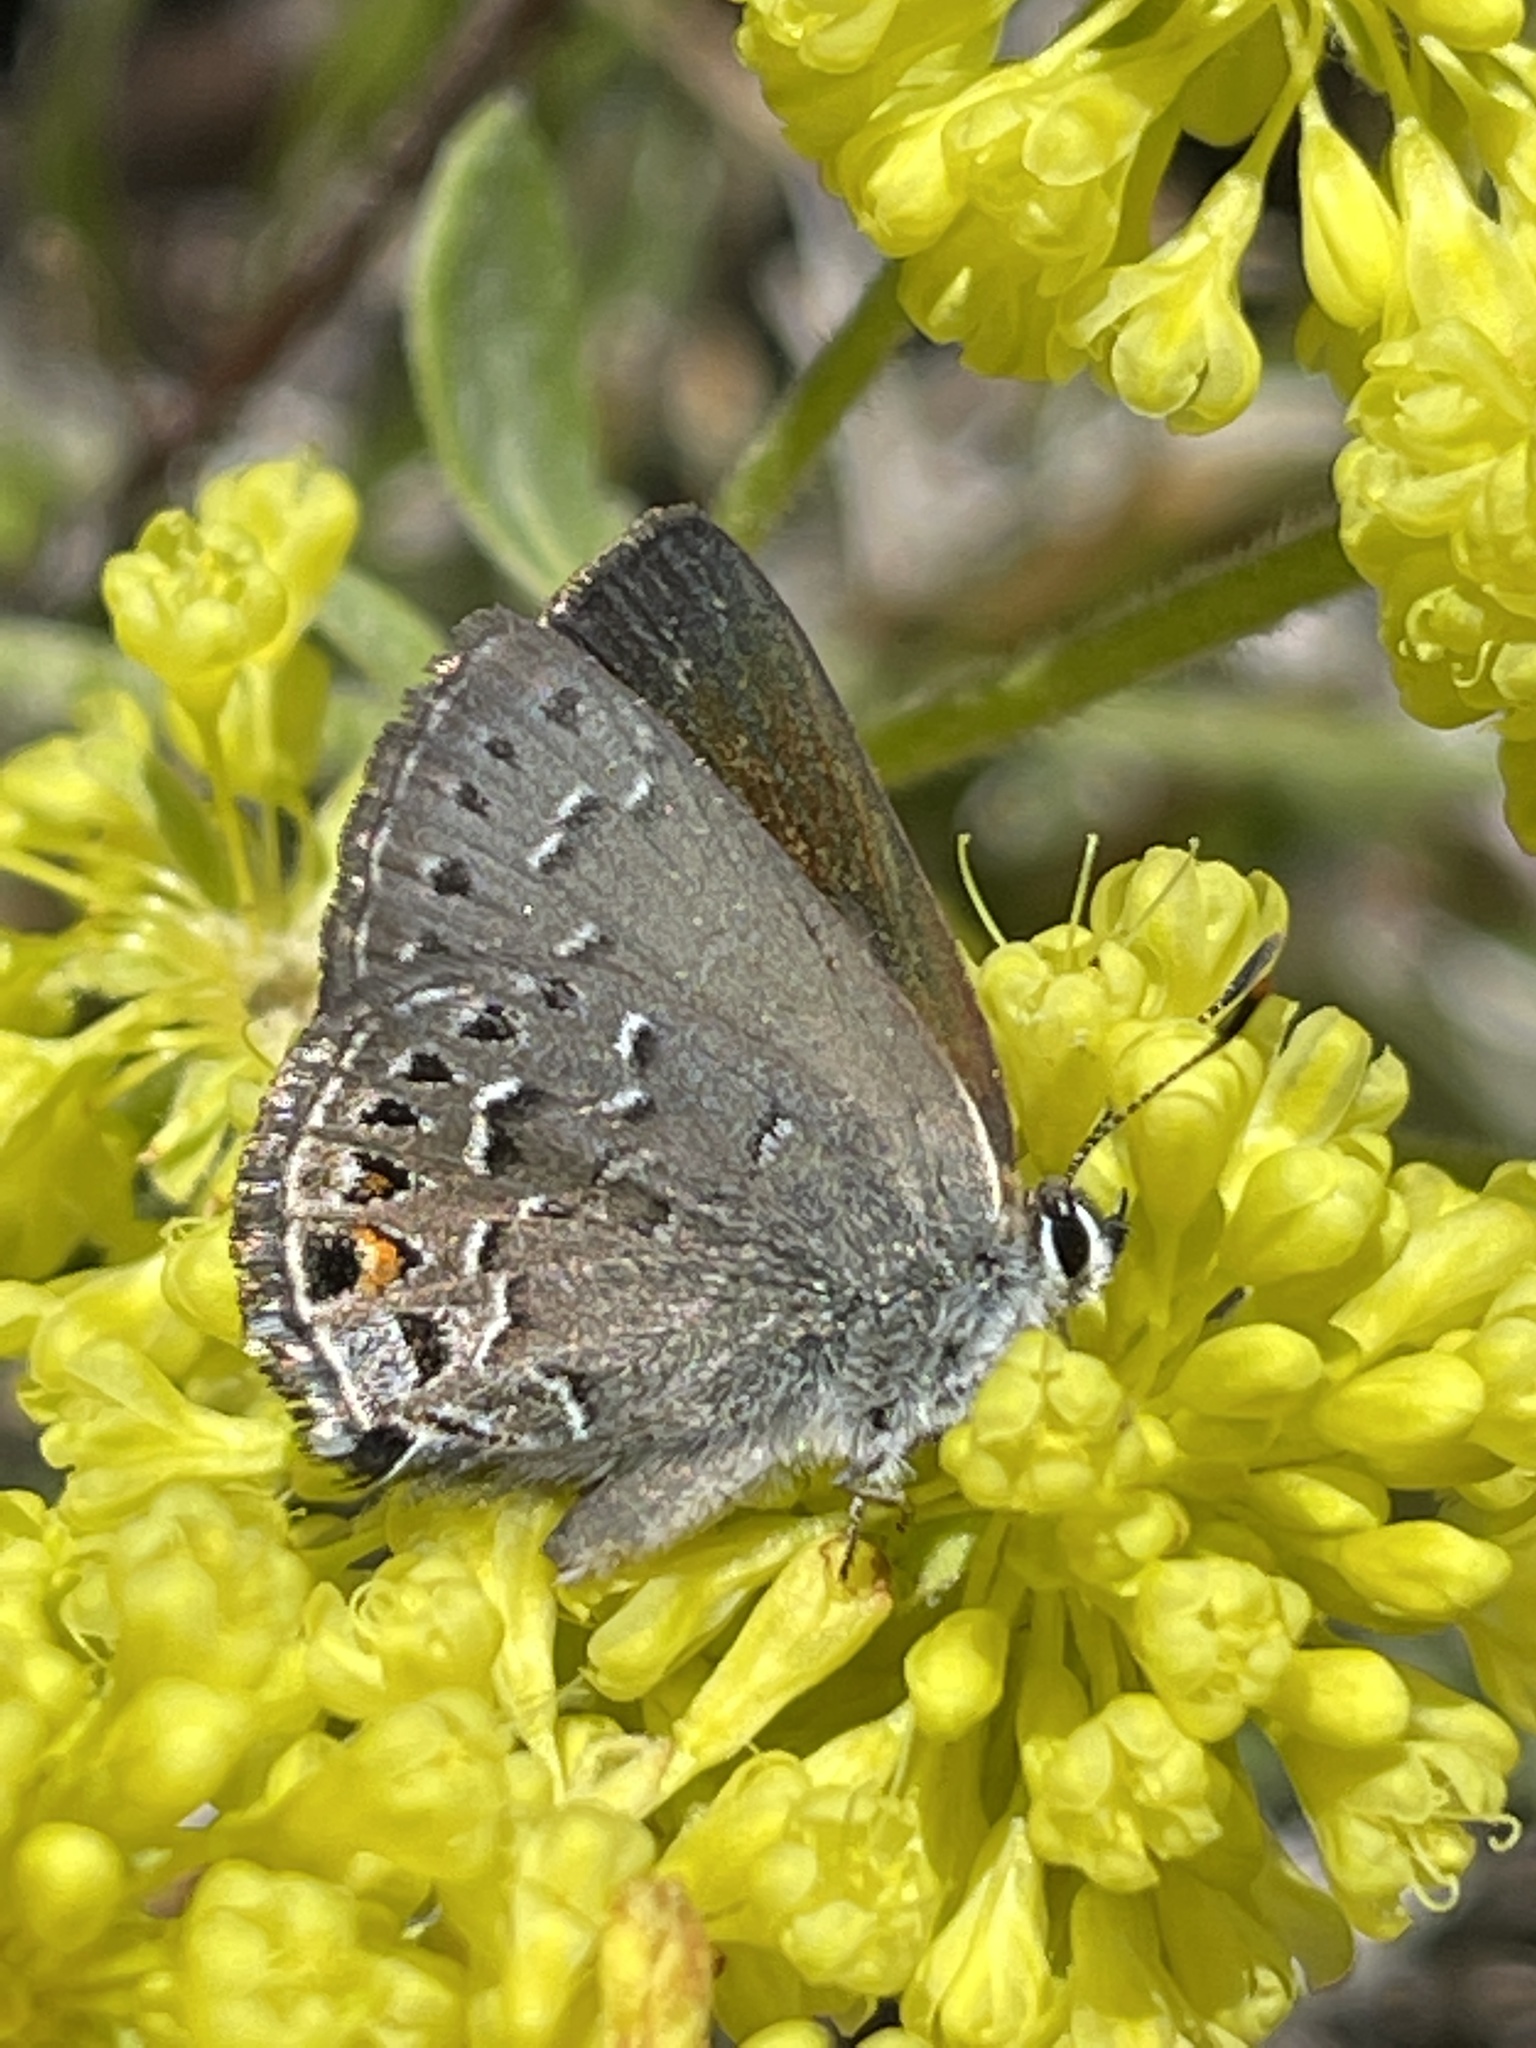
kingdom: Animalia
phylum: Arthropoda
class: Insecta
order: Lepidoptera
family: Lycaenidae
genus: Satyrium
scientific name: Satyrium behrii
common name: Behr's hairstreak
